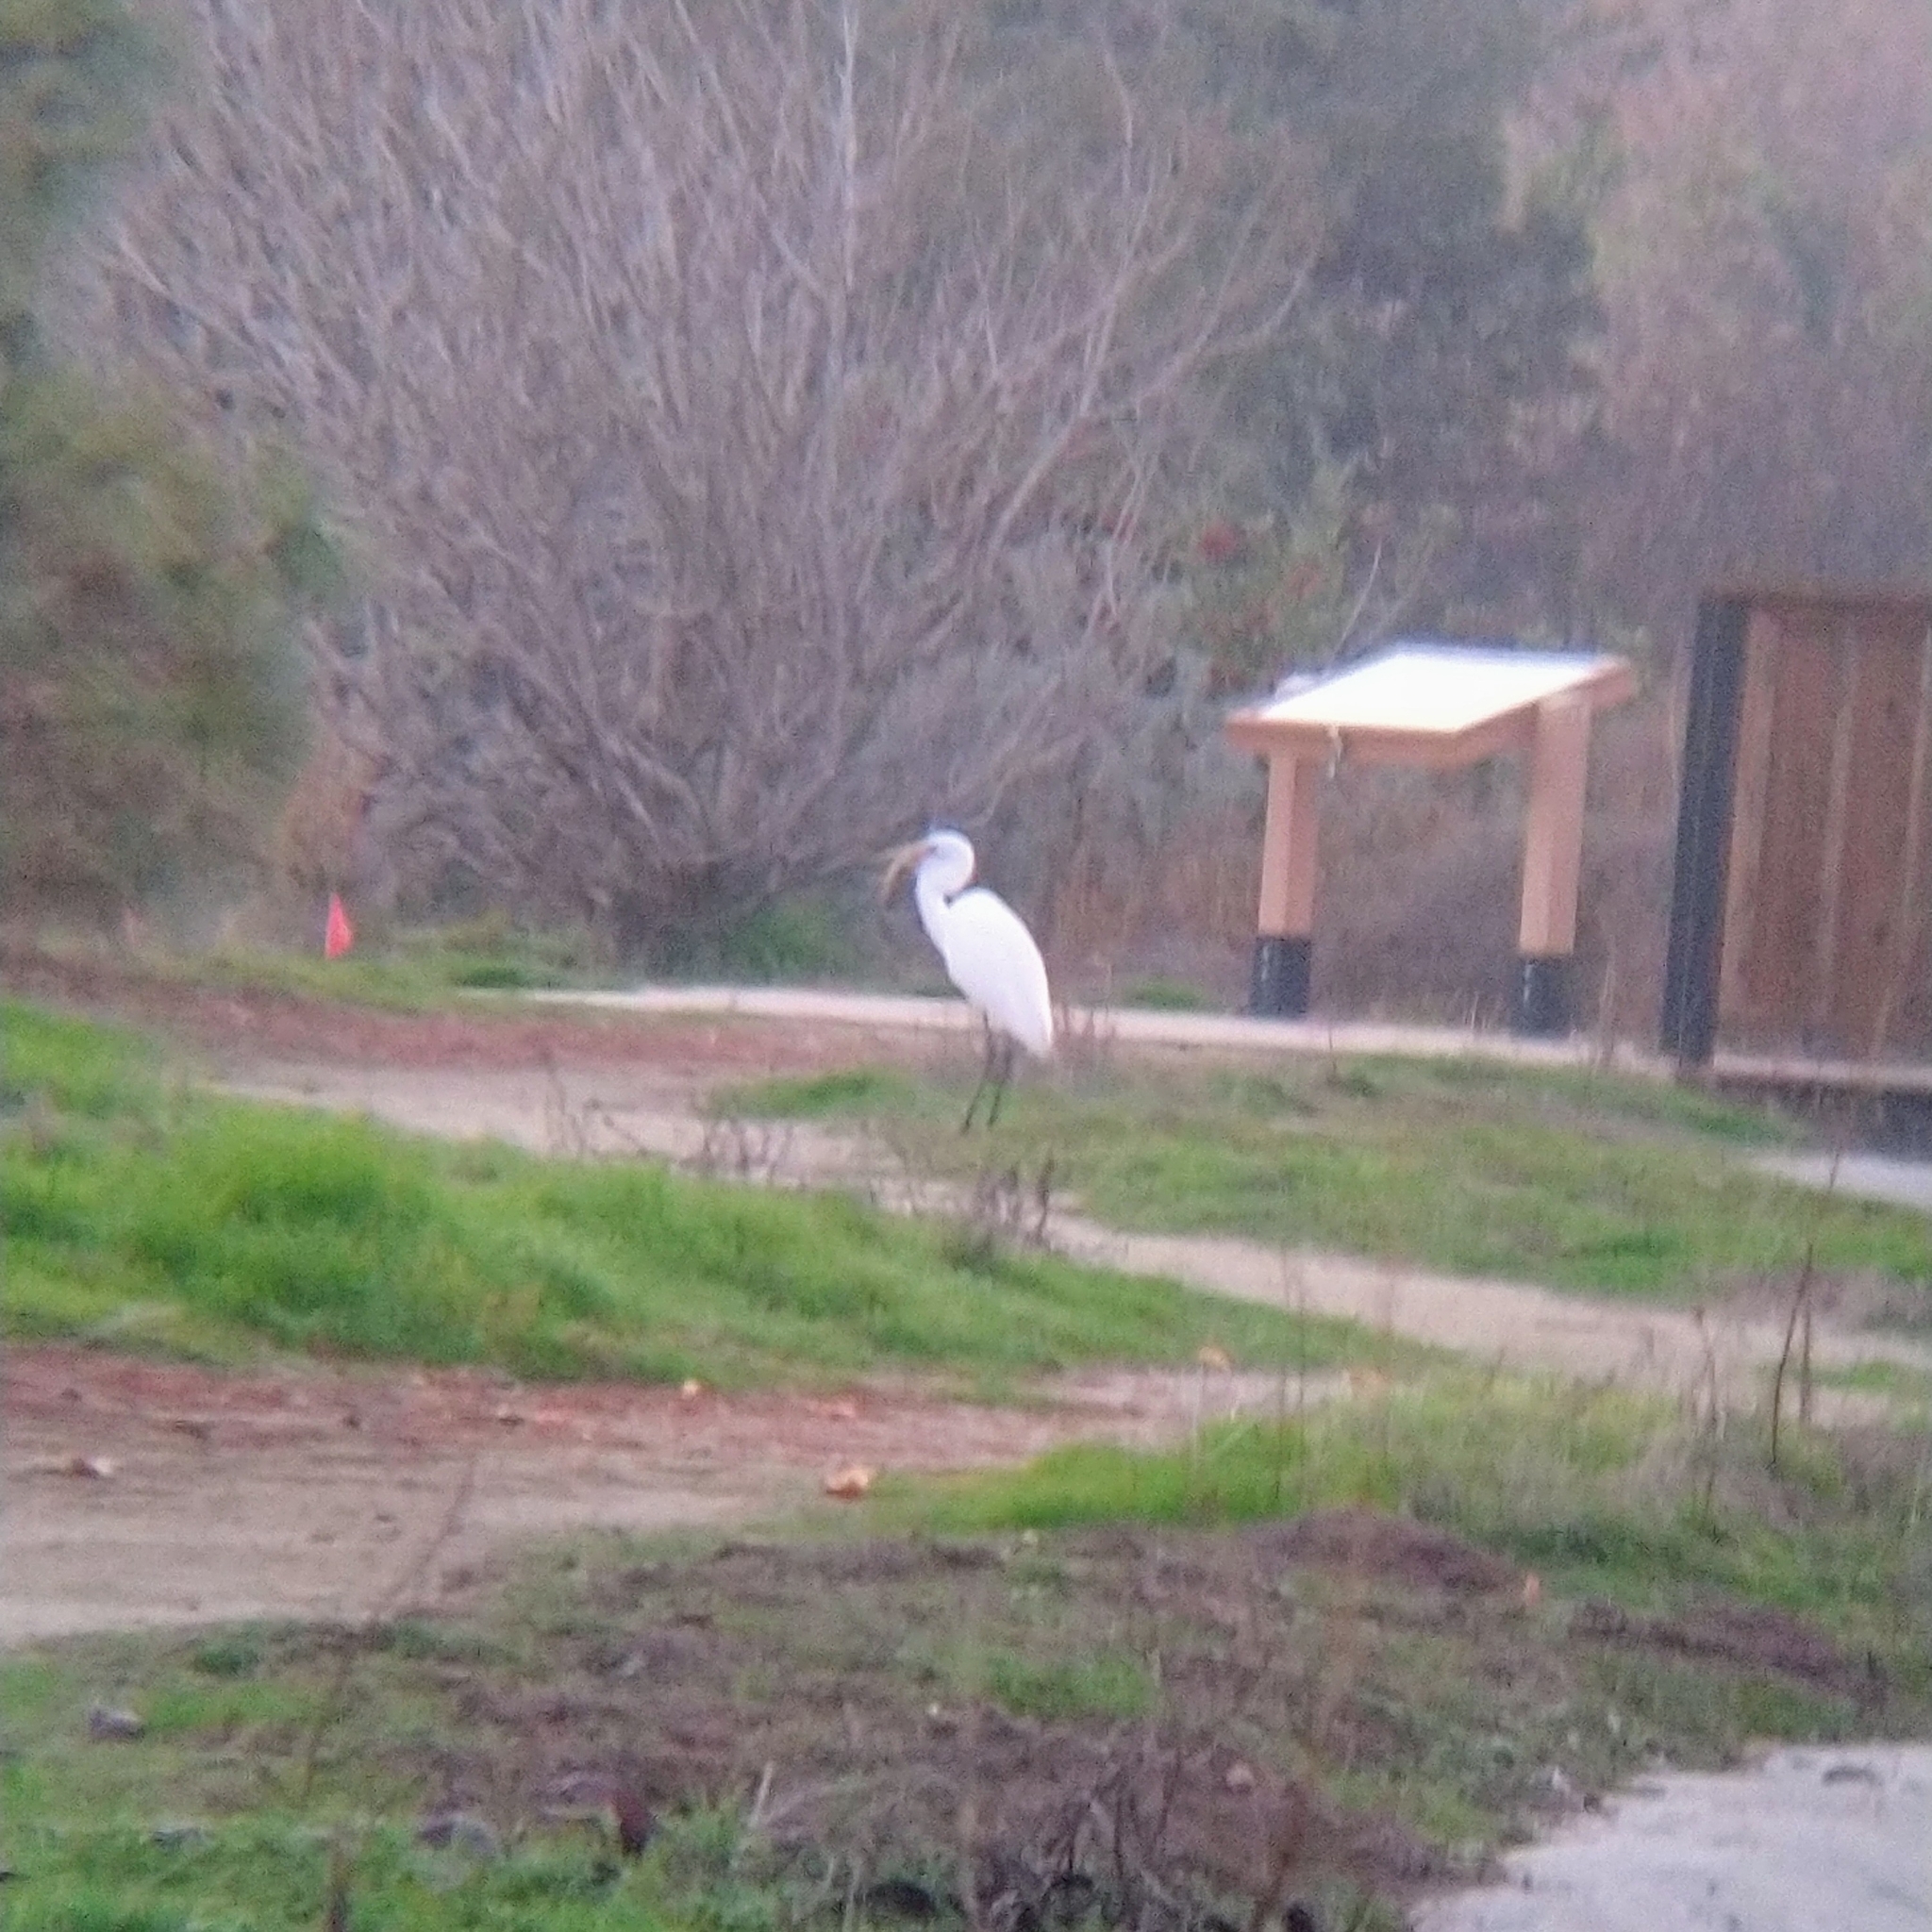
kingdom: Animalia
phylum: Chordata
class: Aves
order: Pelecaniformes
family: Ardeidae
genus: Ardea
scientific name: Ardea alba
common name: Great egret
